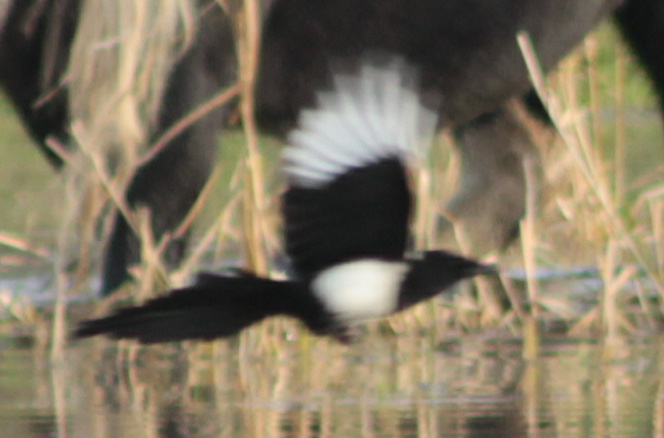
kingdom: Animalia
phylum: Chordata
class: Aves
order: Passeriformes
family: Corvidae
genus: Pica
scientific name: Pica pica
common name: Eurasian magpie
